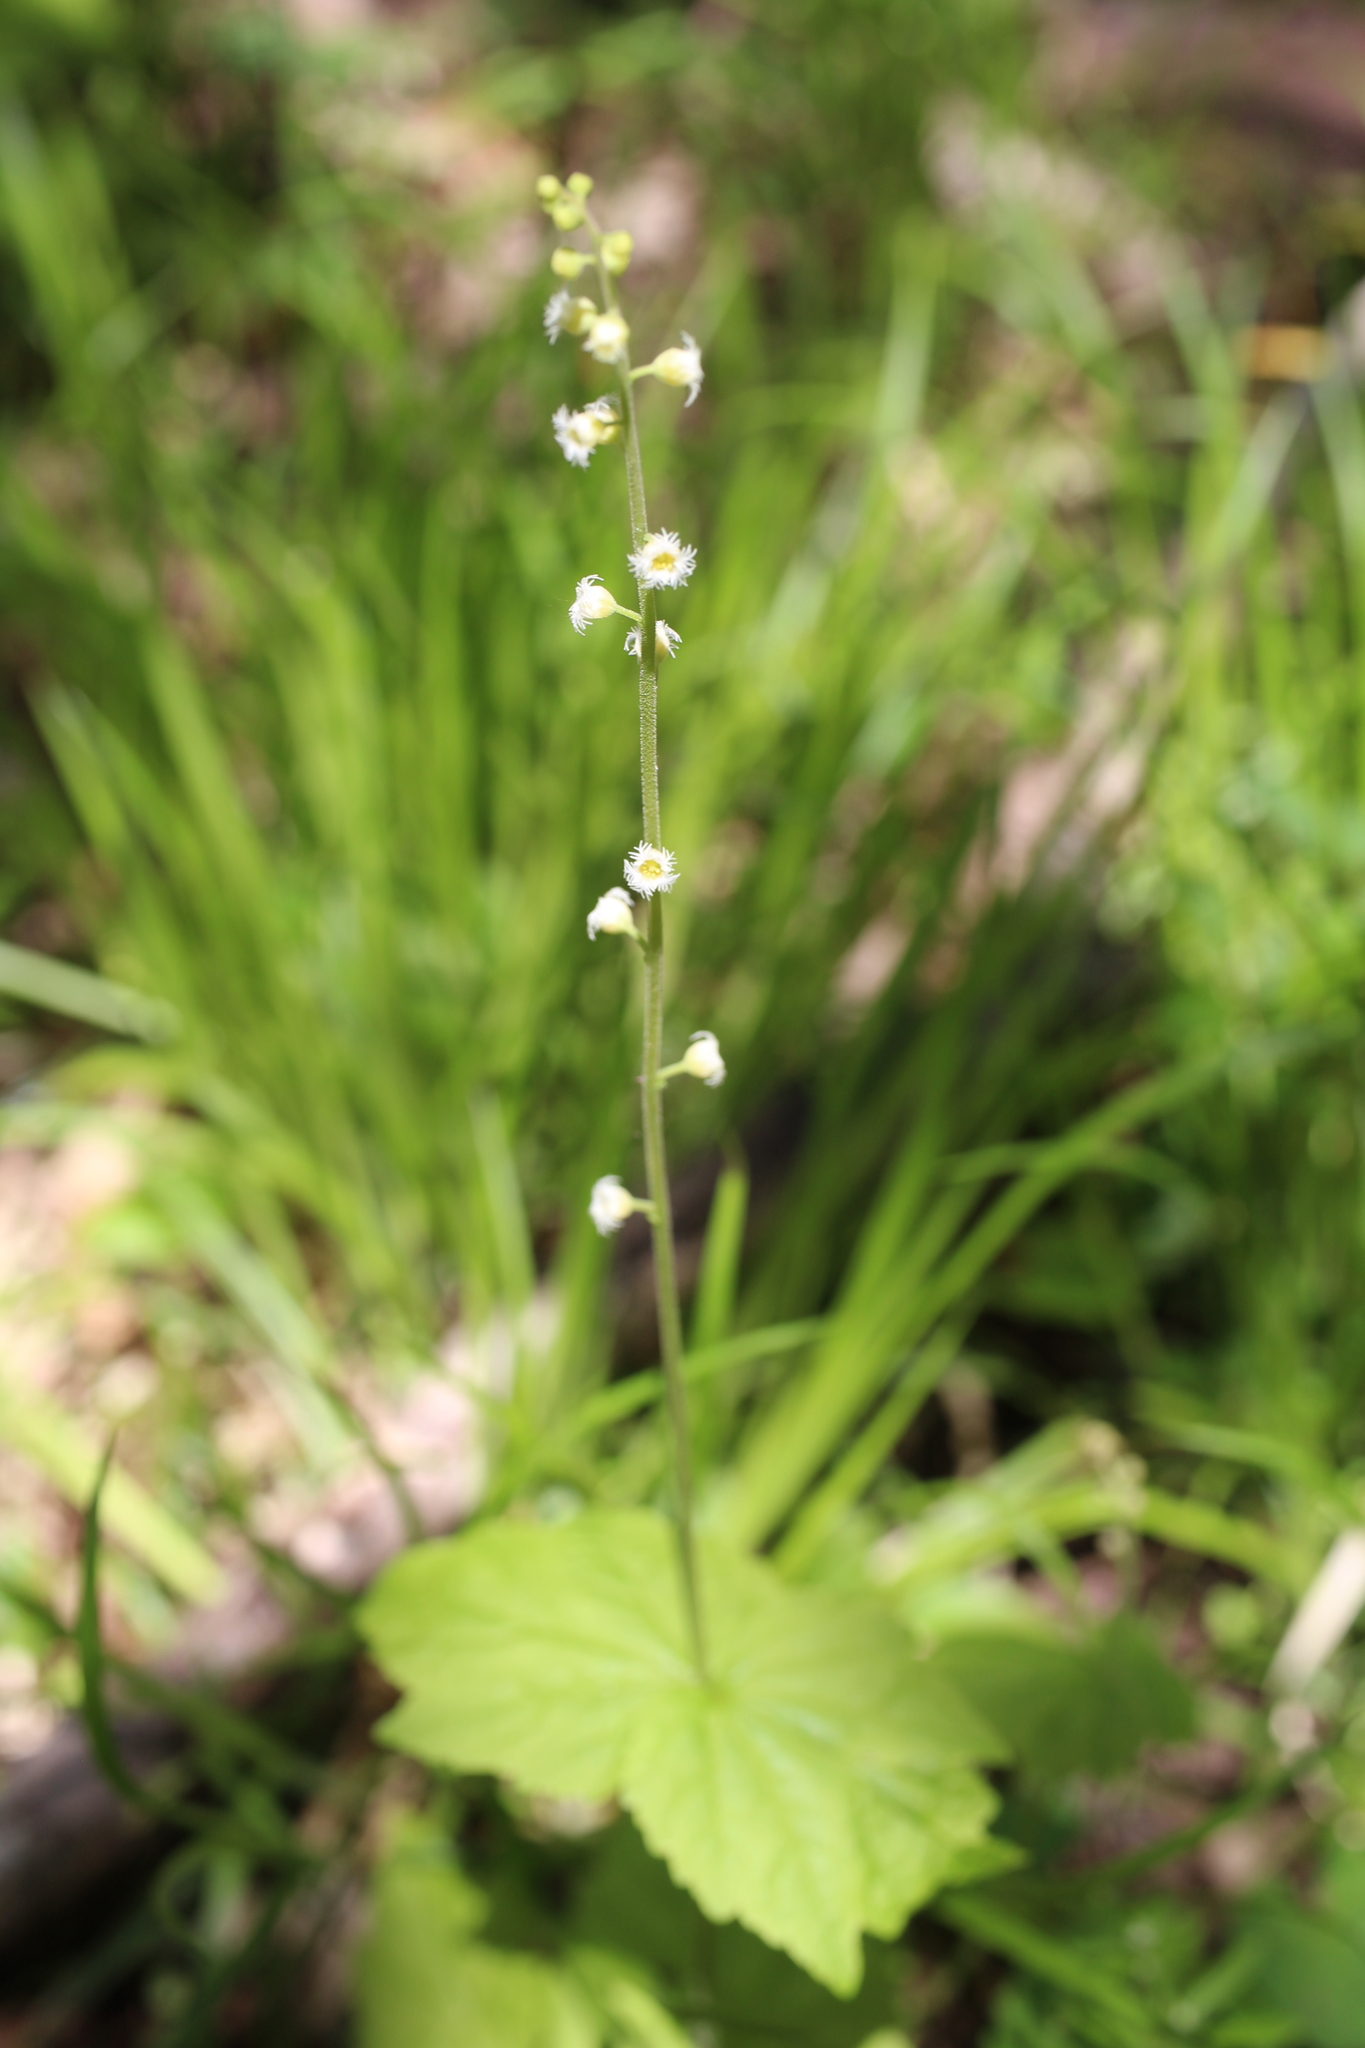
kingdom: Plantae
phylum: Tracheophyta
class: Magnoliopsida
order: Saxifragales
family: Saxifragaceae
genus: Mitella
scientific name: Mitella diphylla
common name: Coolwort
